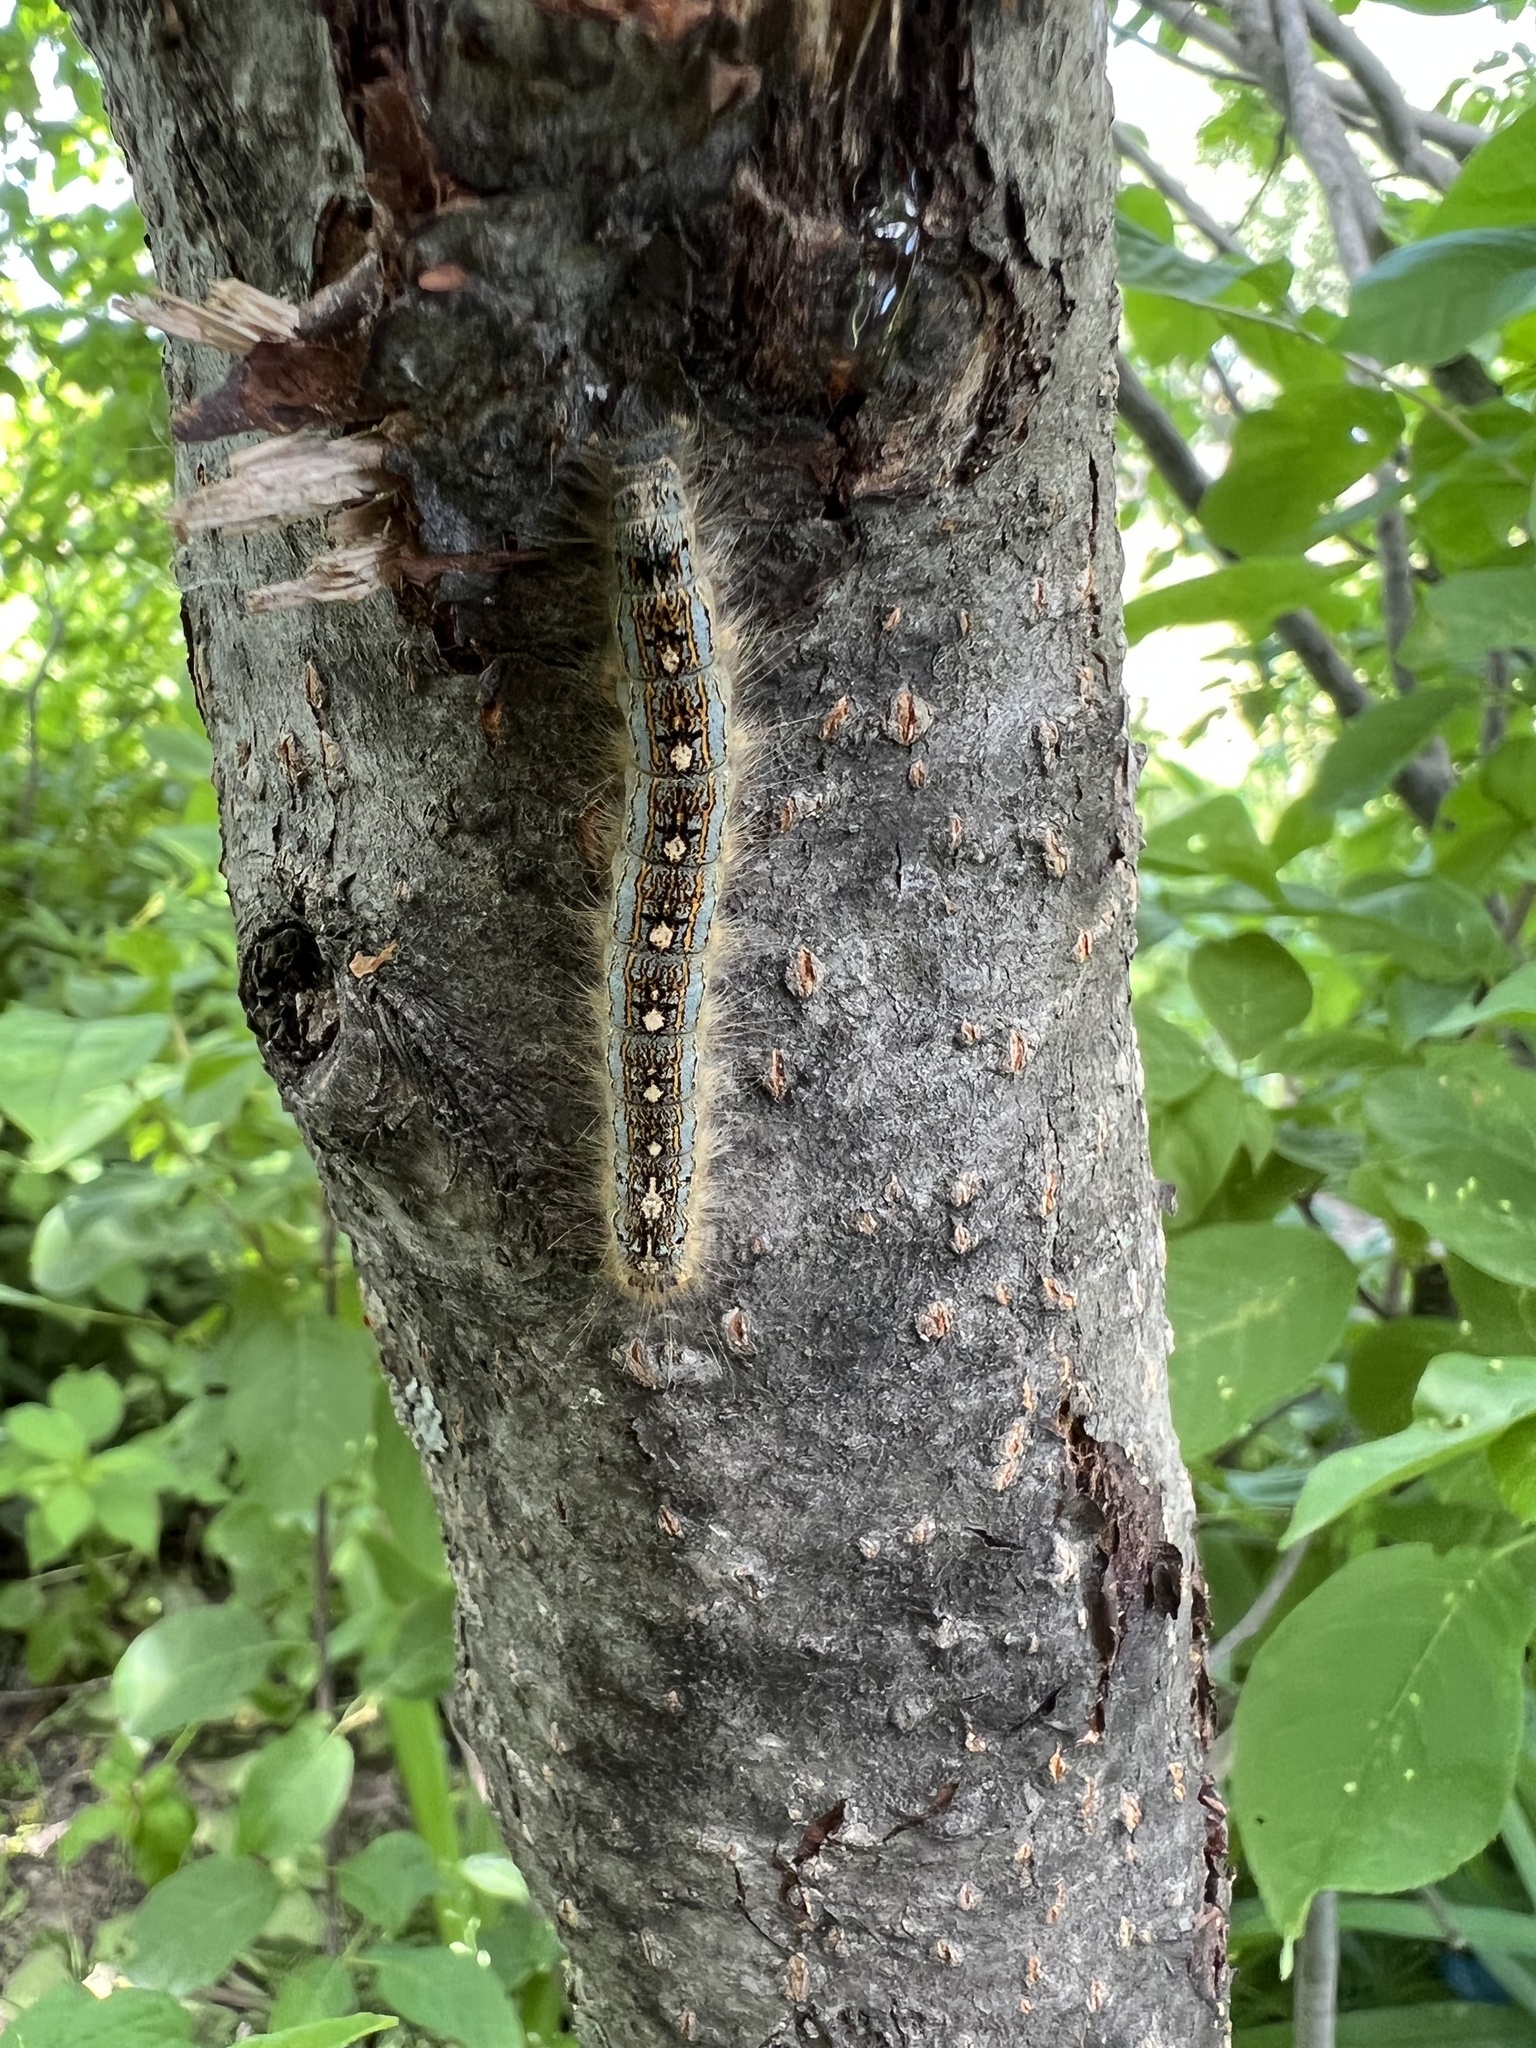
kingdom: Animalia
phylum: Arthropoda
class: Insecta
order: Lepidoptera
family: Lasiocampidae
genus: Malacosoma
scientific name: Malacosoma disstria
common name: Forest tent caterpillar
